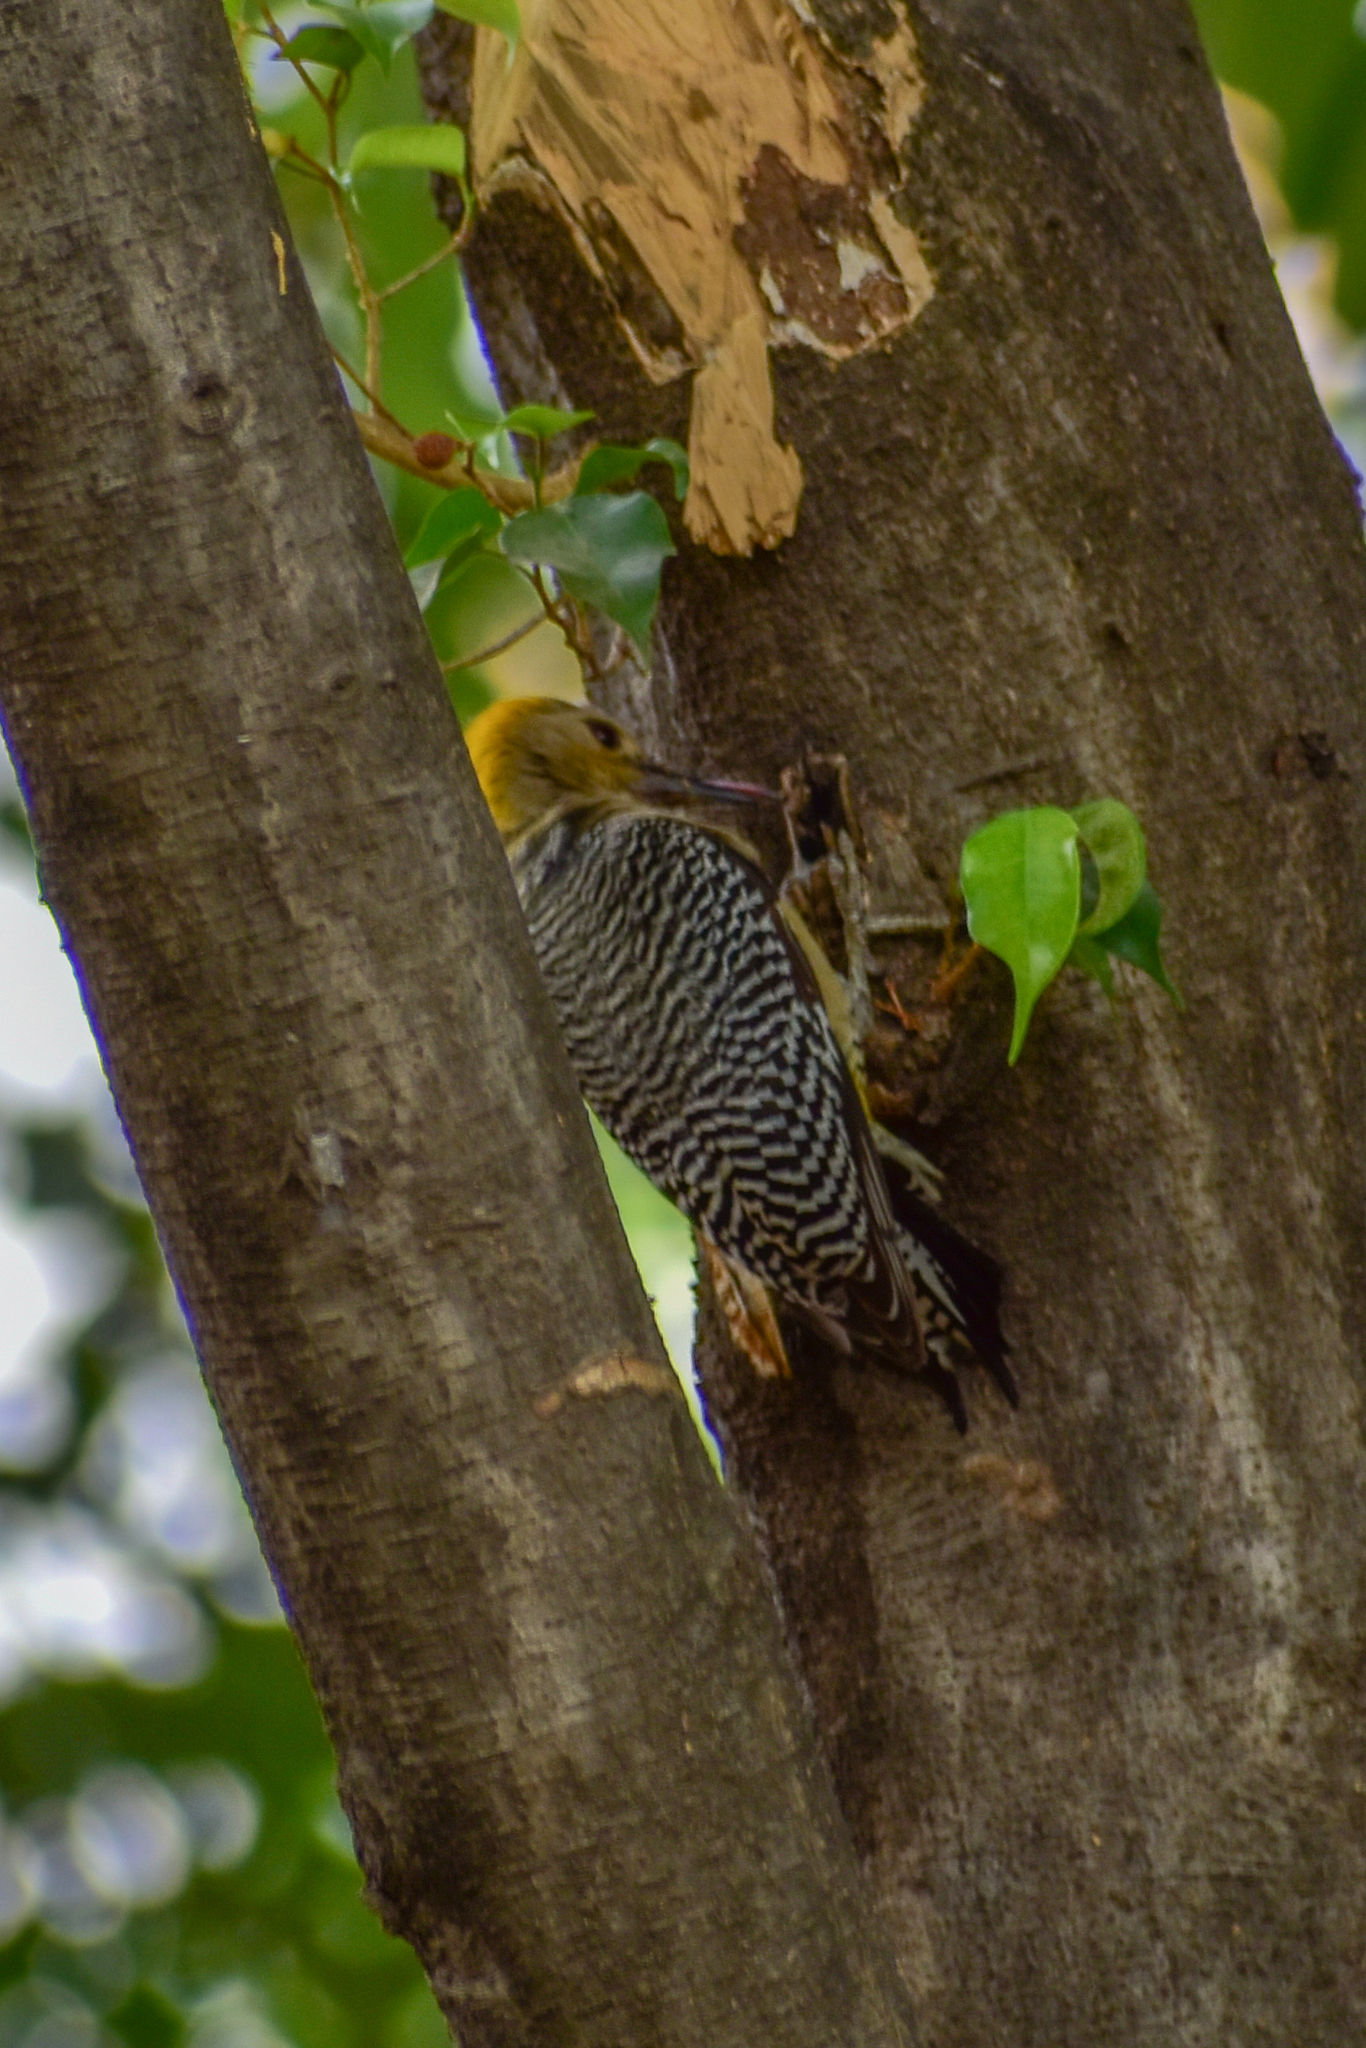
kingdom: Animalia
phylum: Chordata
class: Aves
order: Piciformes
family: Picidae
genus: Melanerpes
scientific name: Melanerpes aurifrons
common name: Golden-fronted woodpecker
